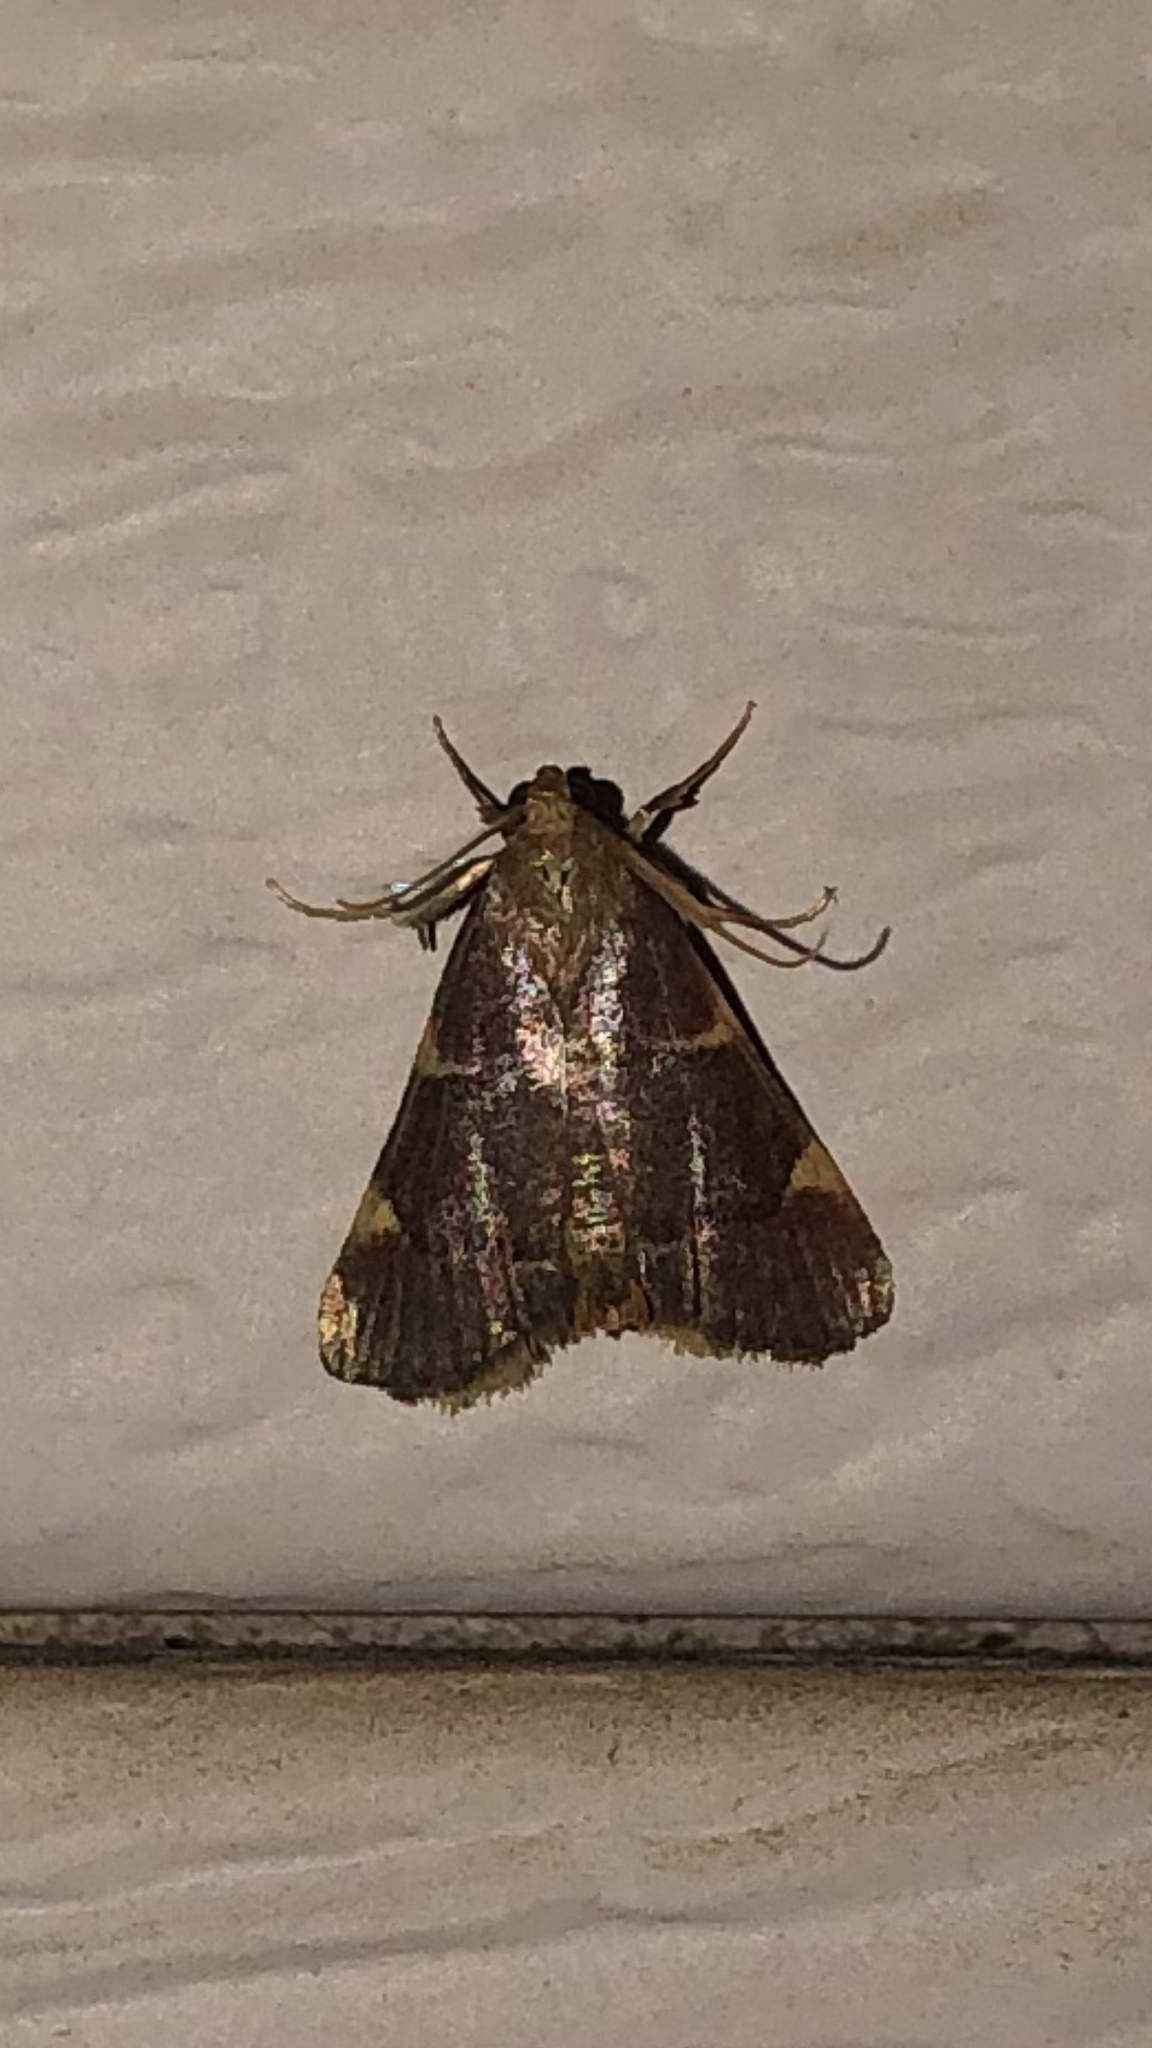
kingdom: Animalia
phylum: Arthropoda
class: Insecta
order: Lepidoptera
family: Pyralidae
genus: Hypsopygia
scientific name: Hypsopygia olinalis
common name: Yellow-fringed dolichomia moth
